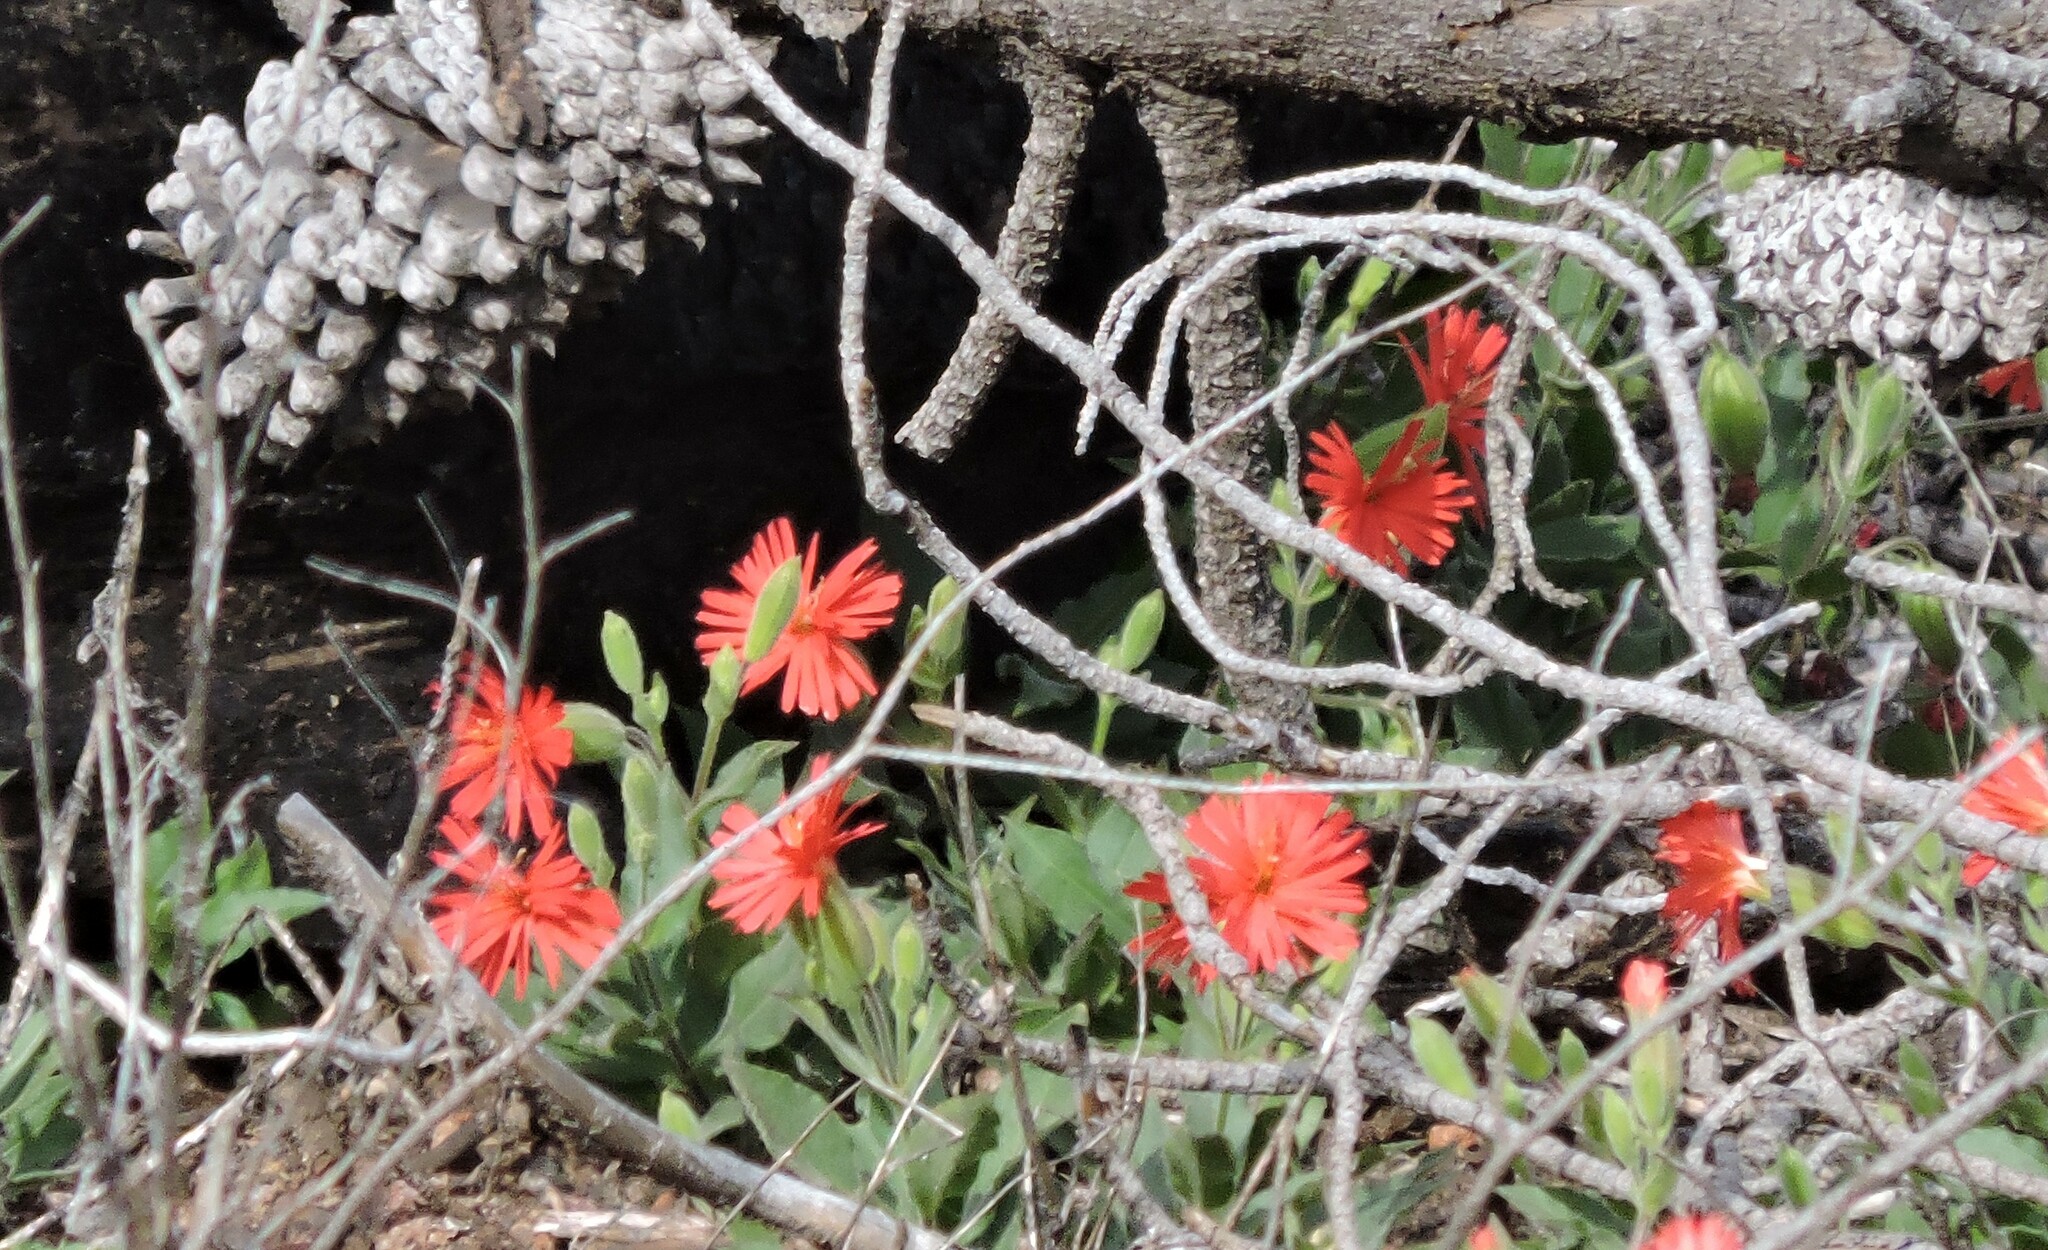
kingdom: Plantae
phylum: Tracheophyta
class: Magnoliopsida
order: Caryophyllales
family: Caryophyllaceae
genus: Silene
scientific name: Silene laciniata
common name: Indian-pink
